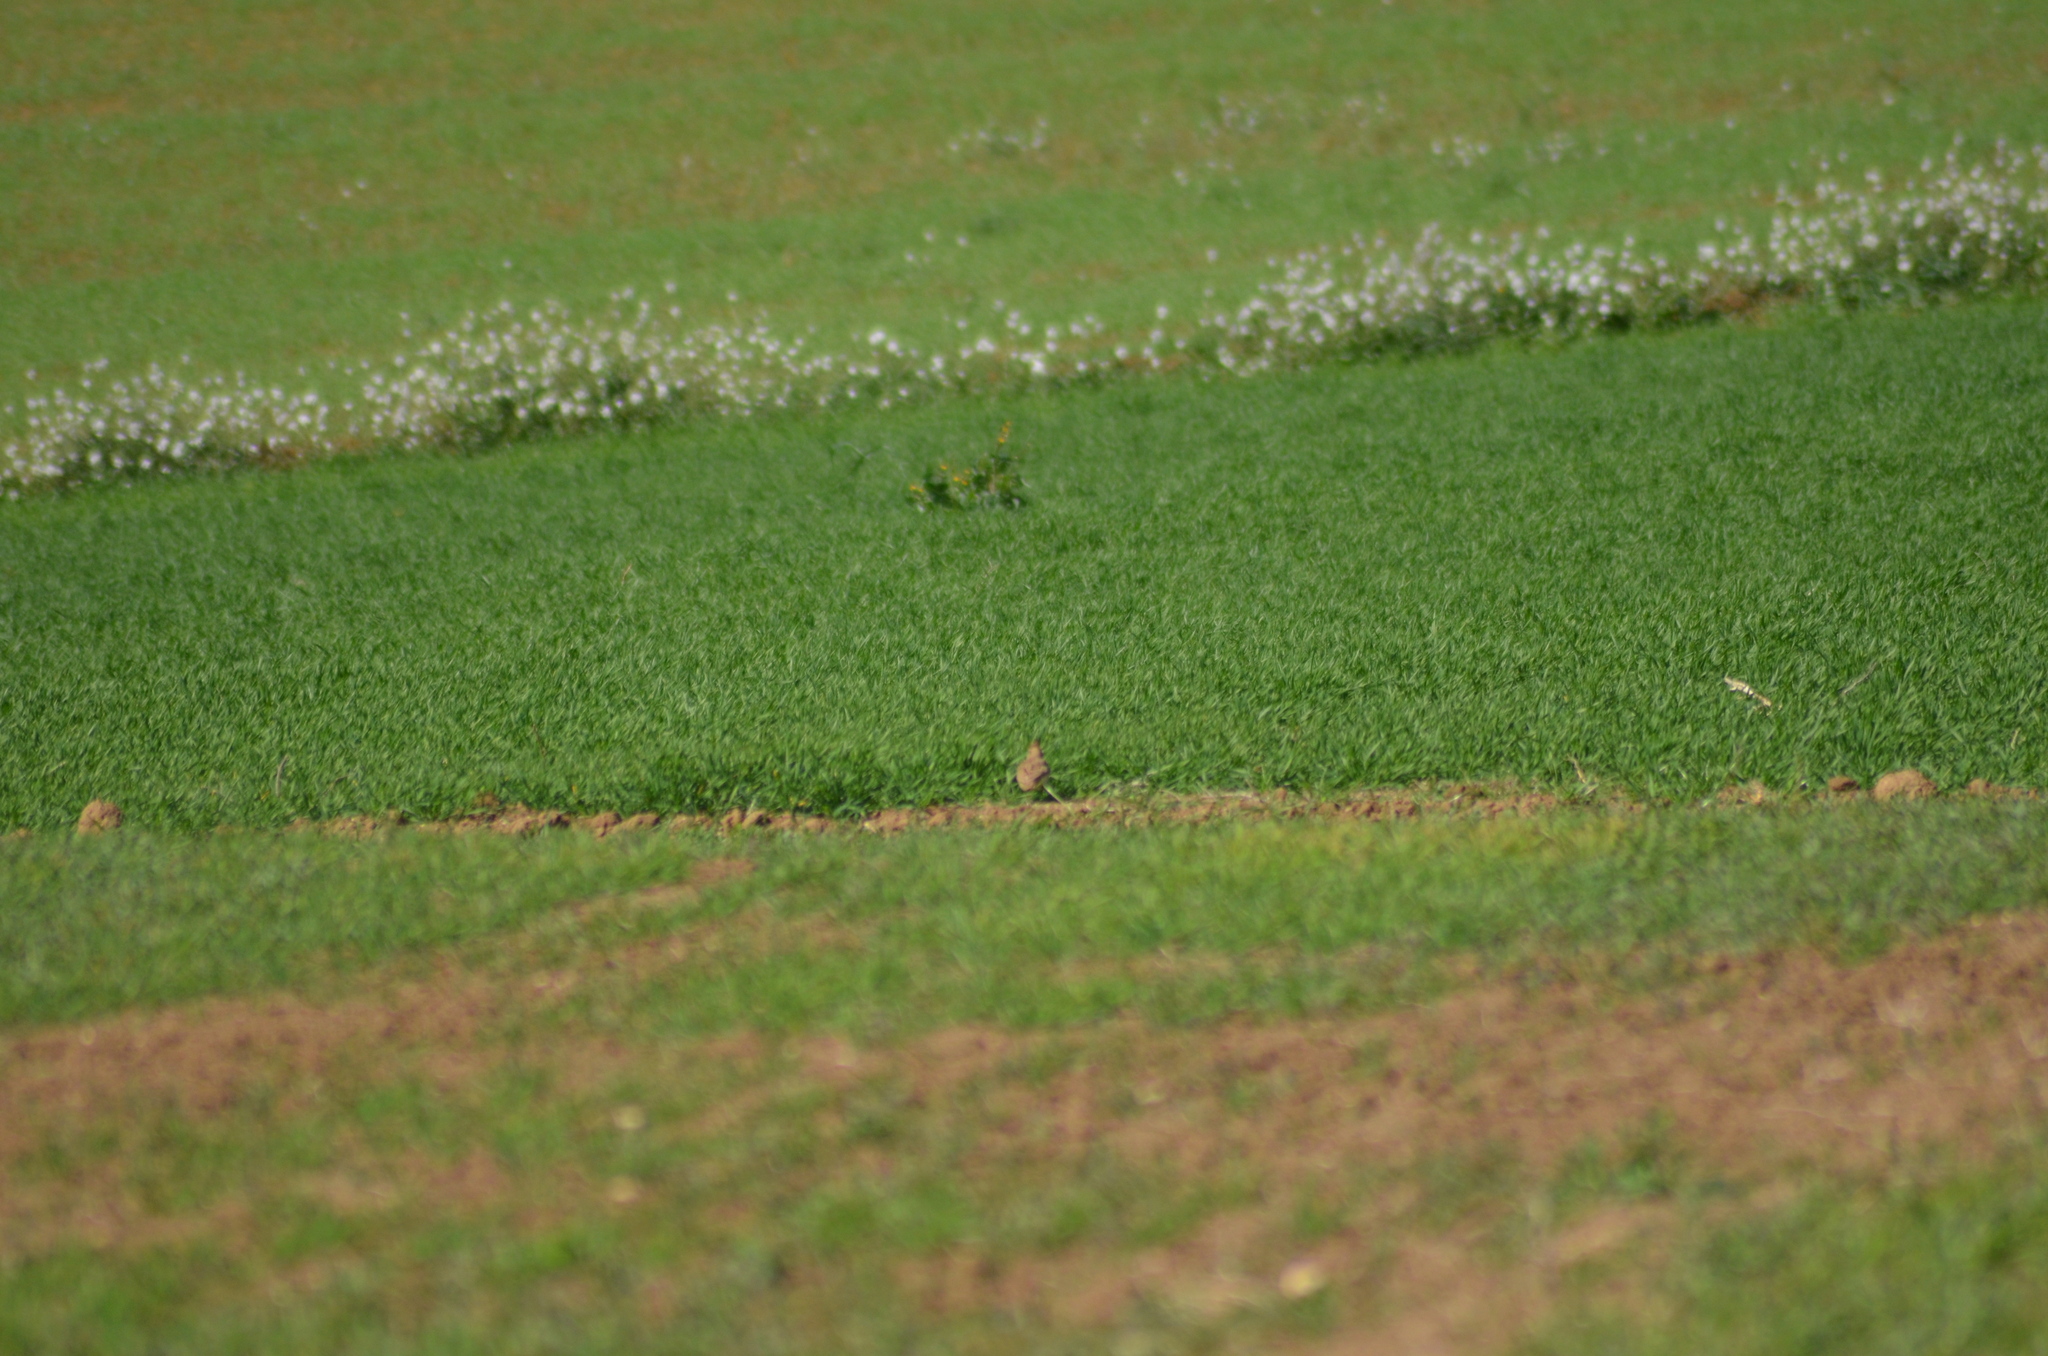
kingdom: Animalia
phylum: Chordata
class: Aves
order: Passeriformes
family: Alaudidae
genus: Galerida
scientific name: Galerida cristata
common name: Crested lark
